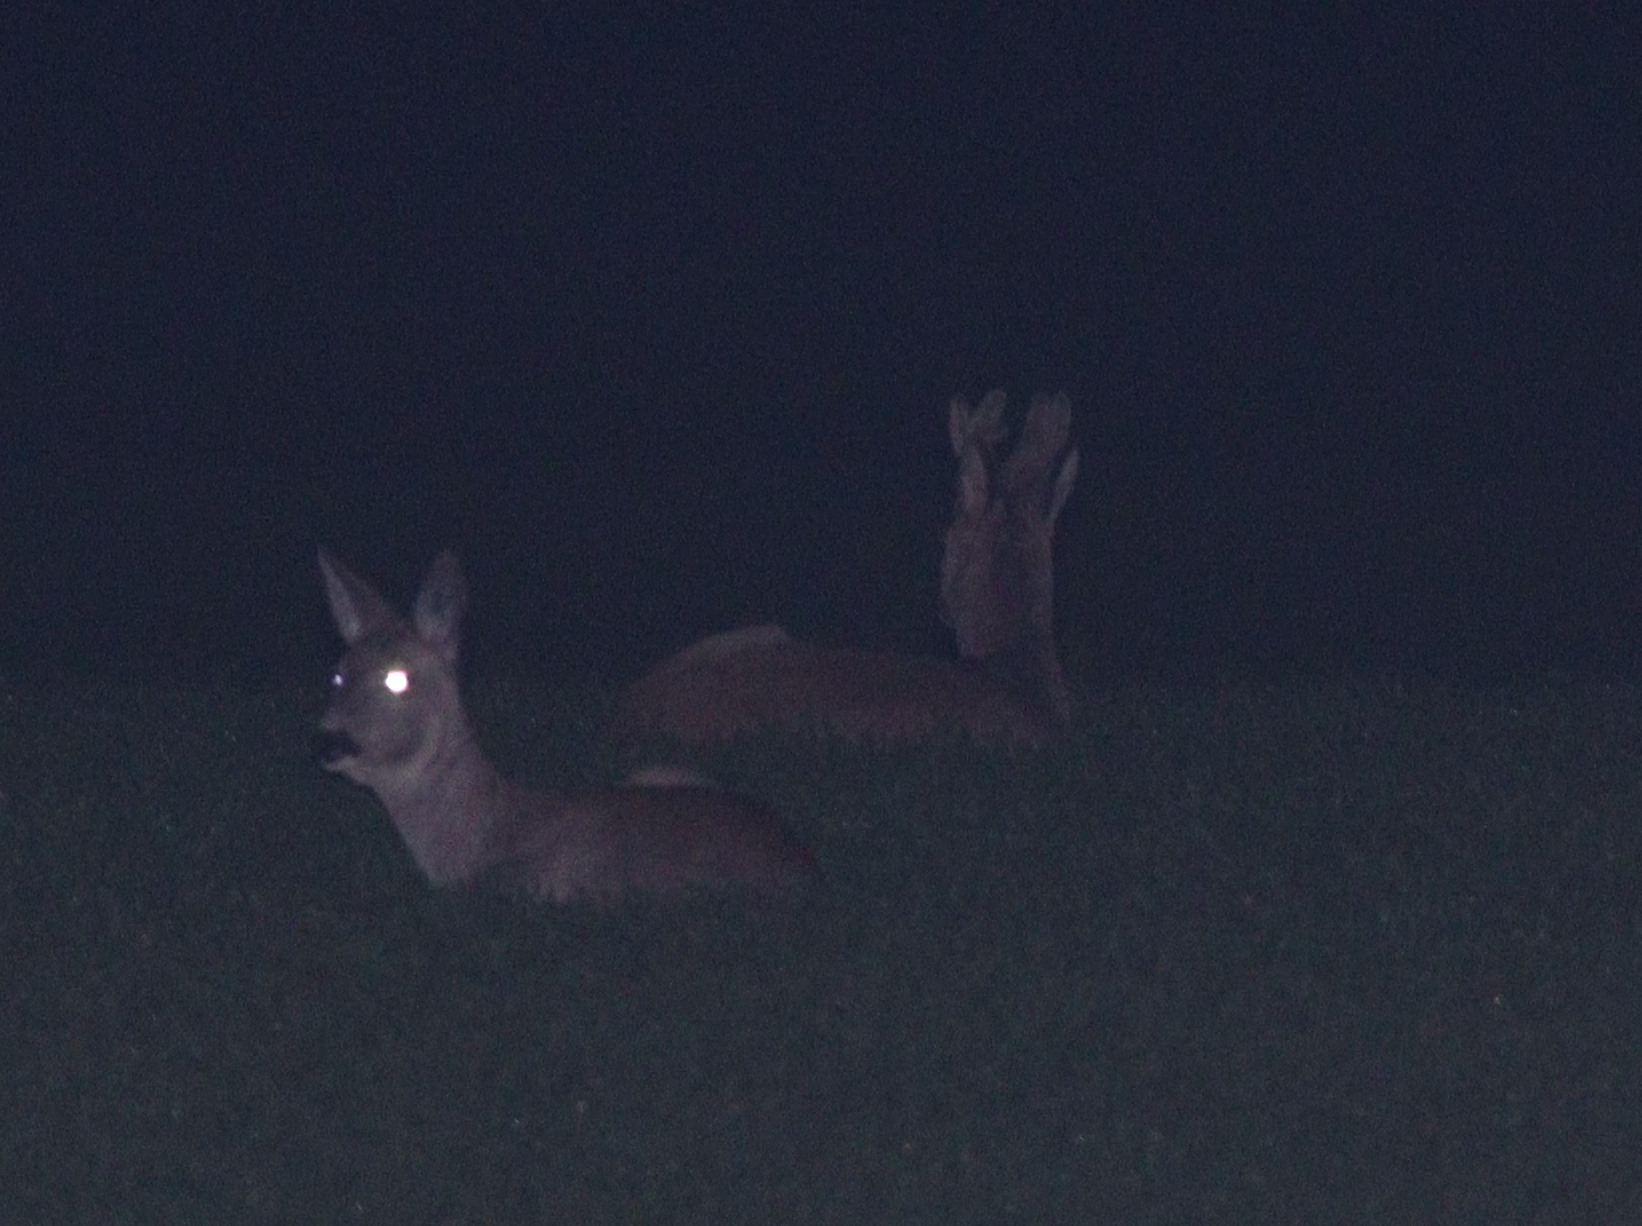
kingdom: Animalia
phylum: Chordata
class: Mammalia
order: Artiodactyla
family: Cervidae
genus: Capreolus
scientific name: Capreolus capreolus
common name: Western roe deer
